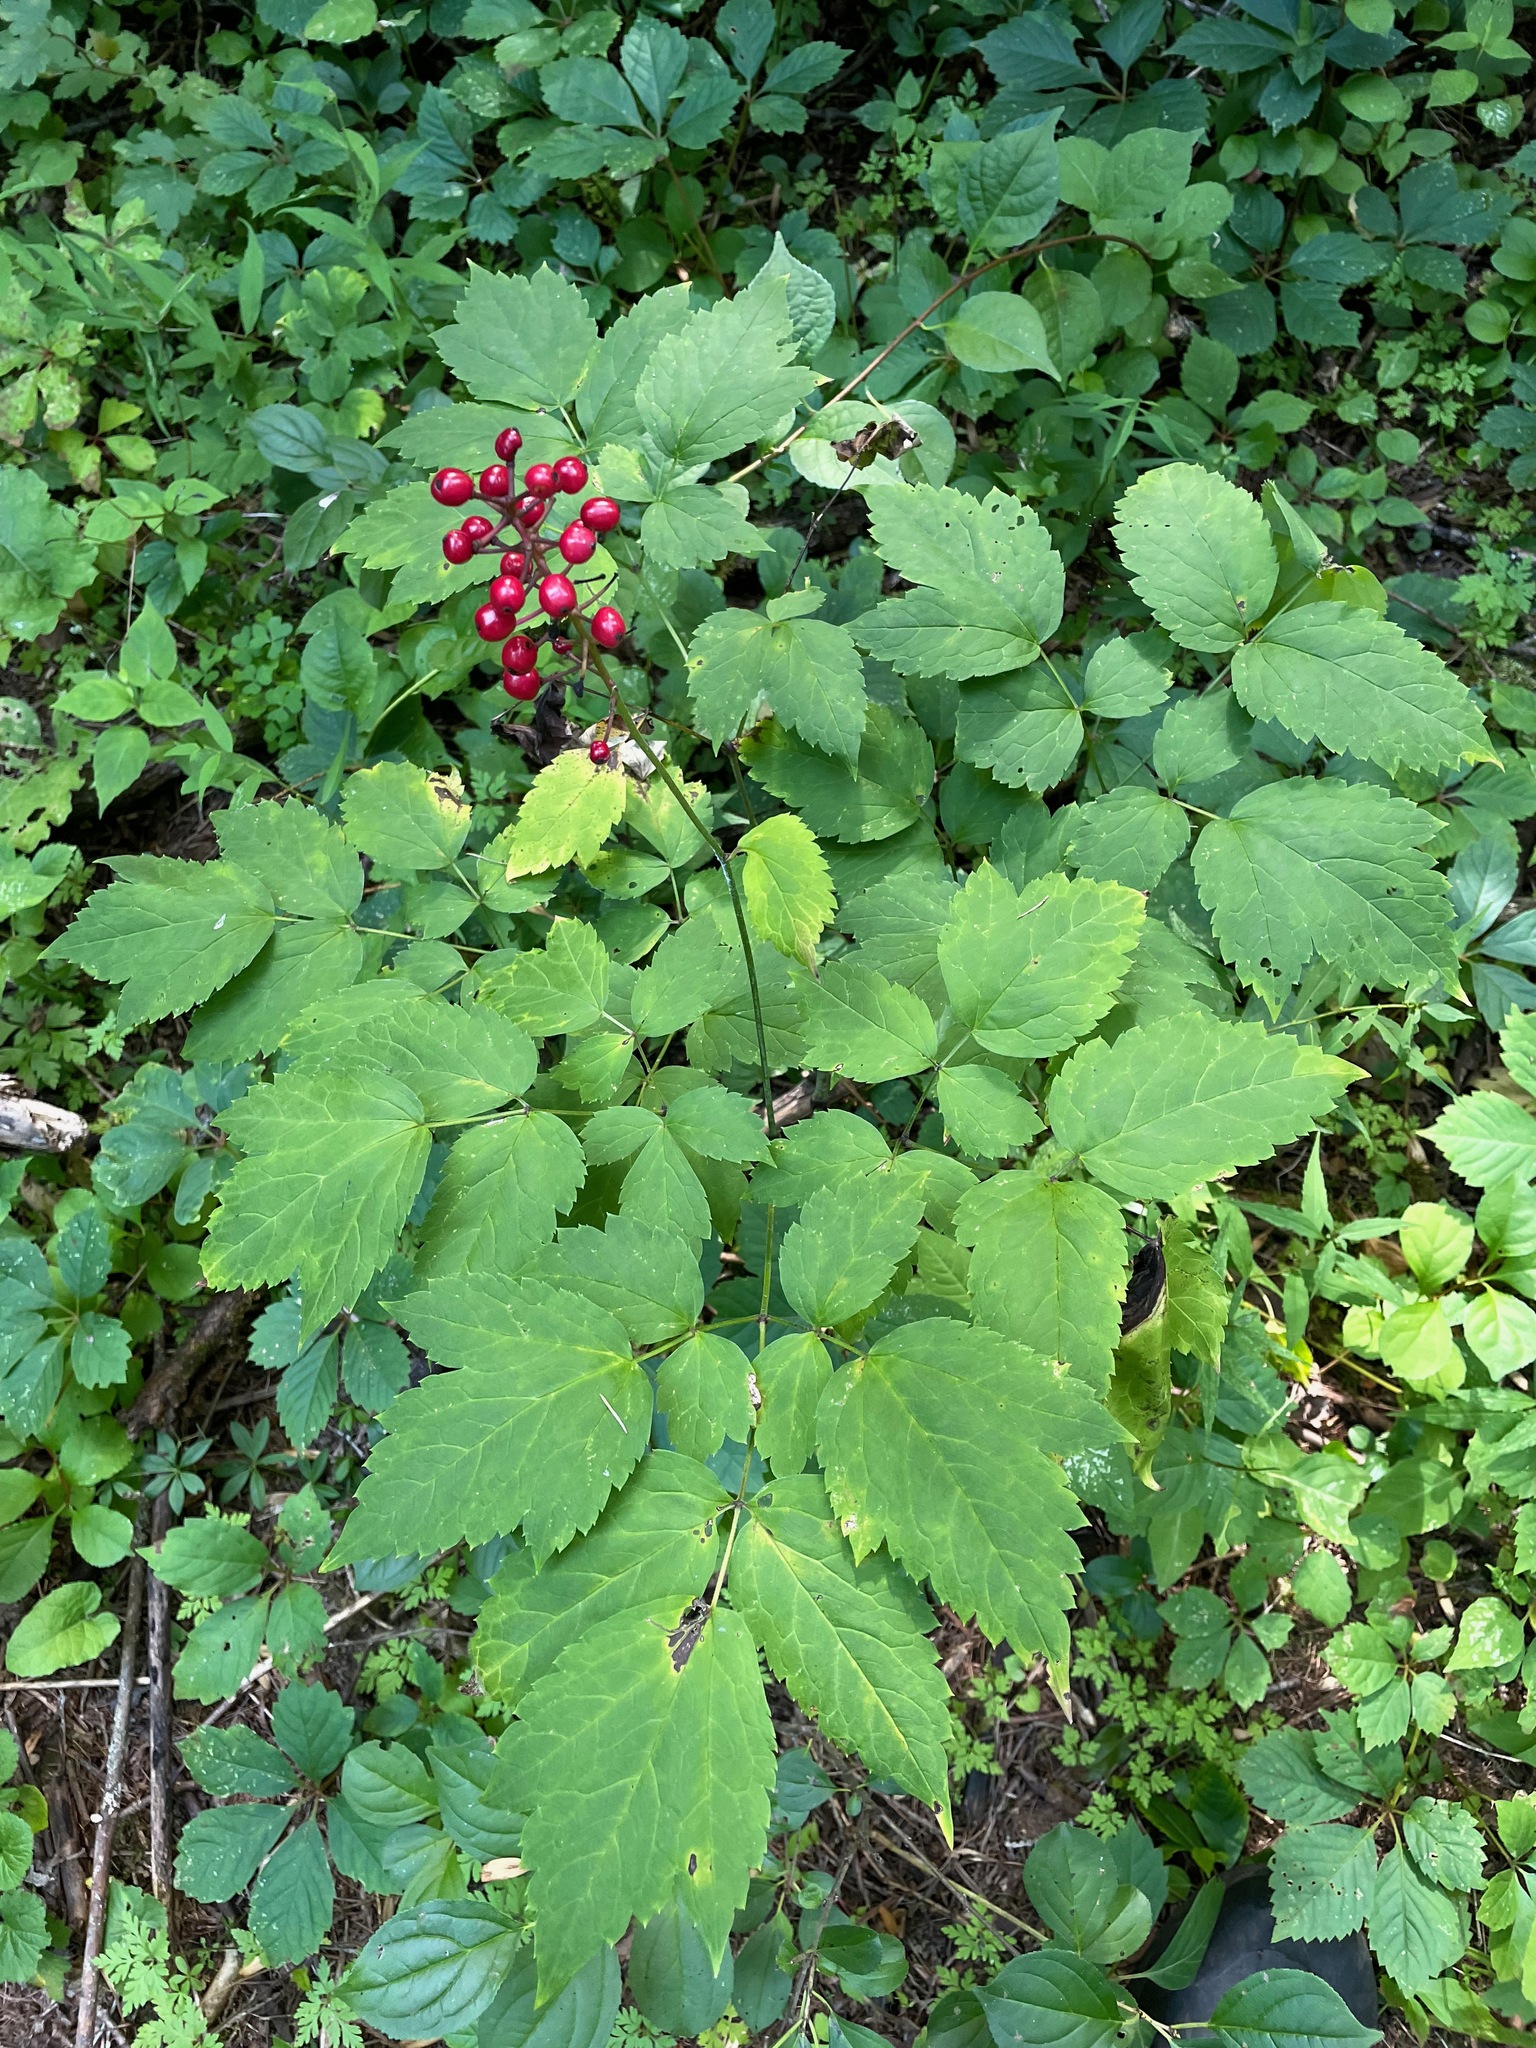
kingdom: Plantae
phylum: Tracheophyta
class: Magnoliopsida
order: Ranunculales
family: Ranunculaceae
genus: Actaea
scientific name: Actaea ludovici
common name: Ludovic's baneberry
